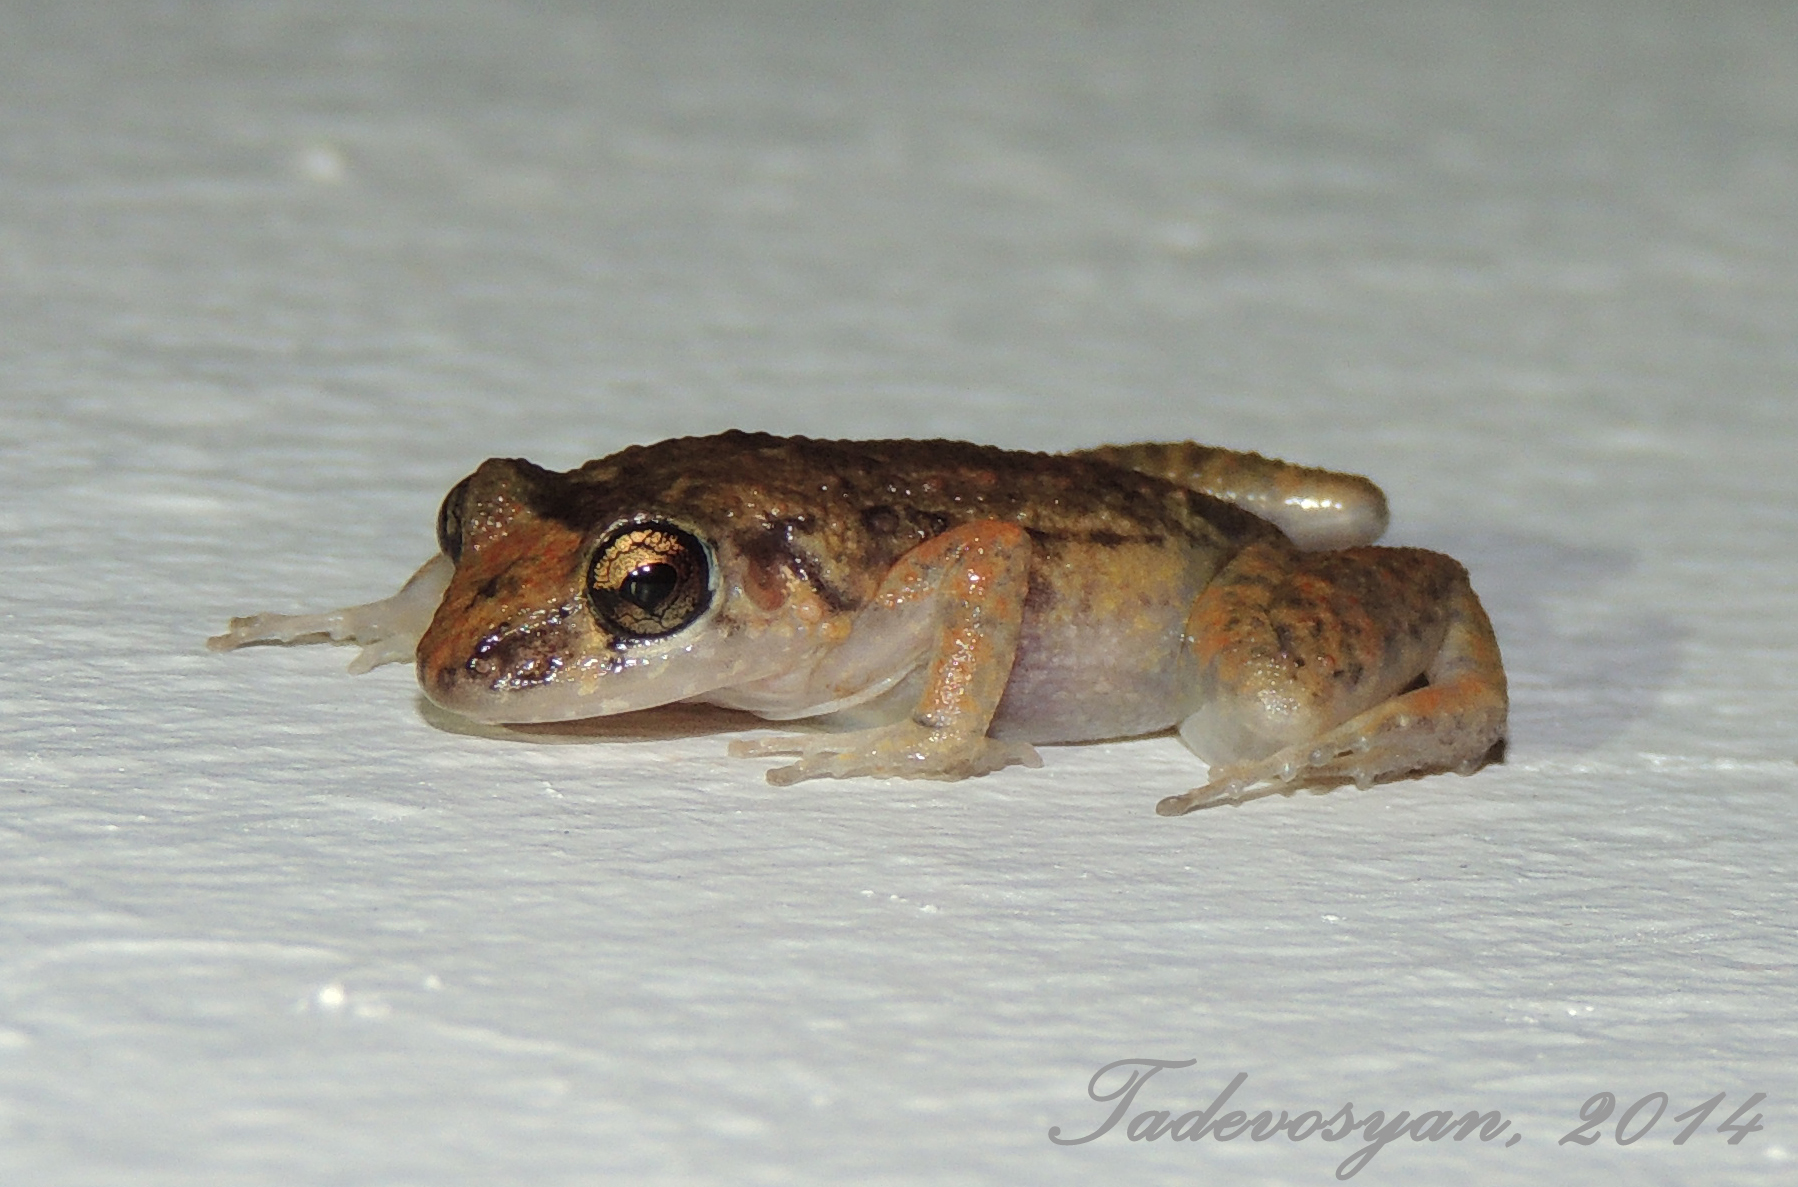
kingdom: Animalia
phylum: Chordata
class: Amphibia
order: Anura
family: Eleutherodactylidae
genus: Eleutherodactylus
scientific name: Eleutherodactylus planirostris
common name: Greenhouse frog
